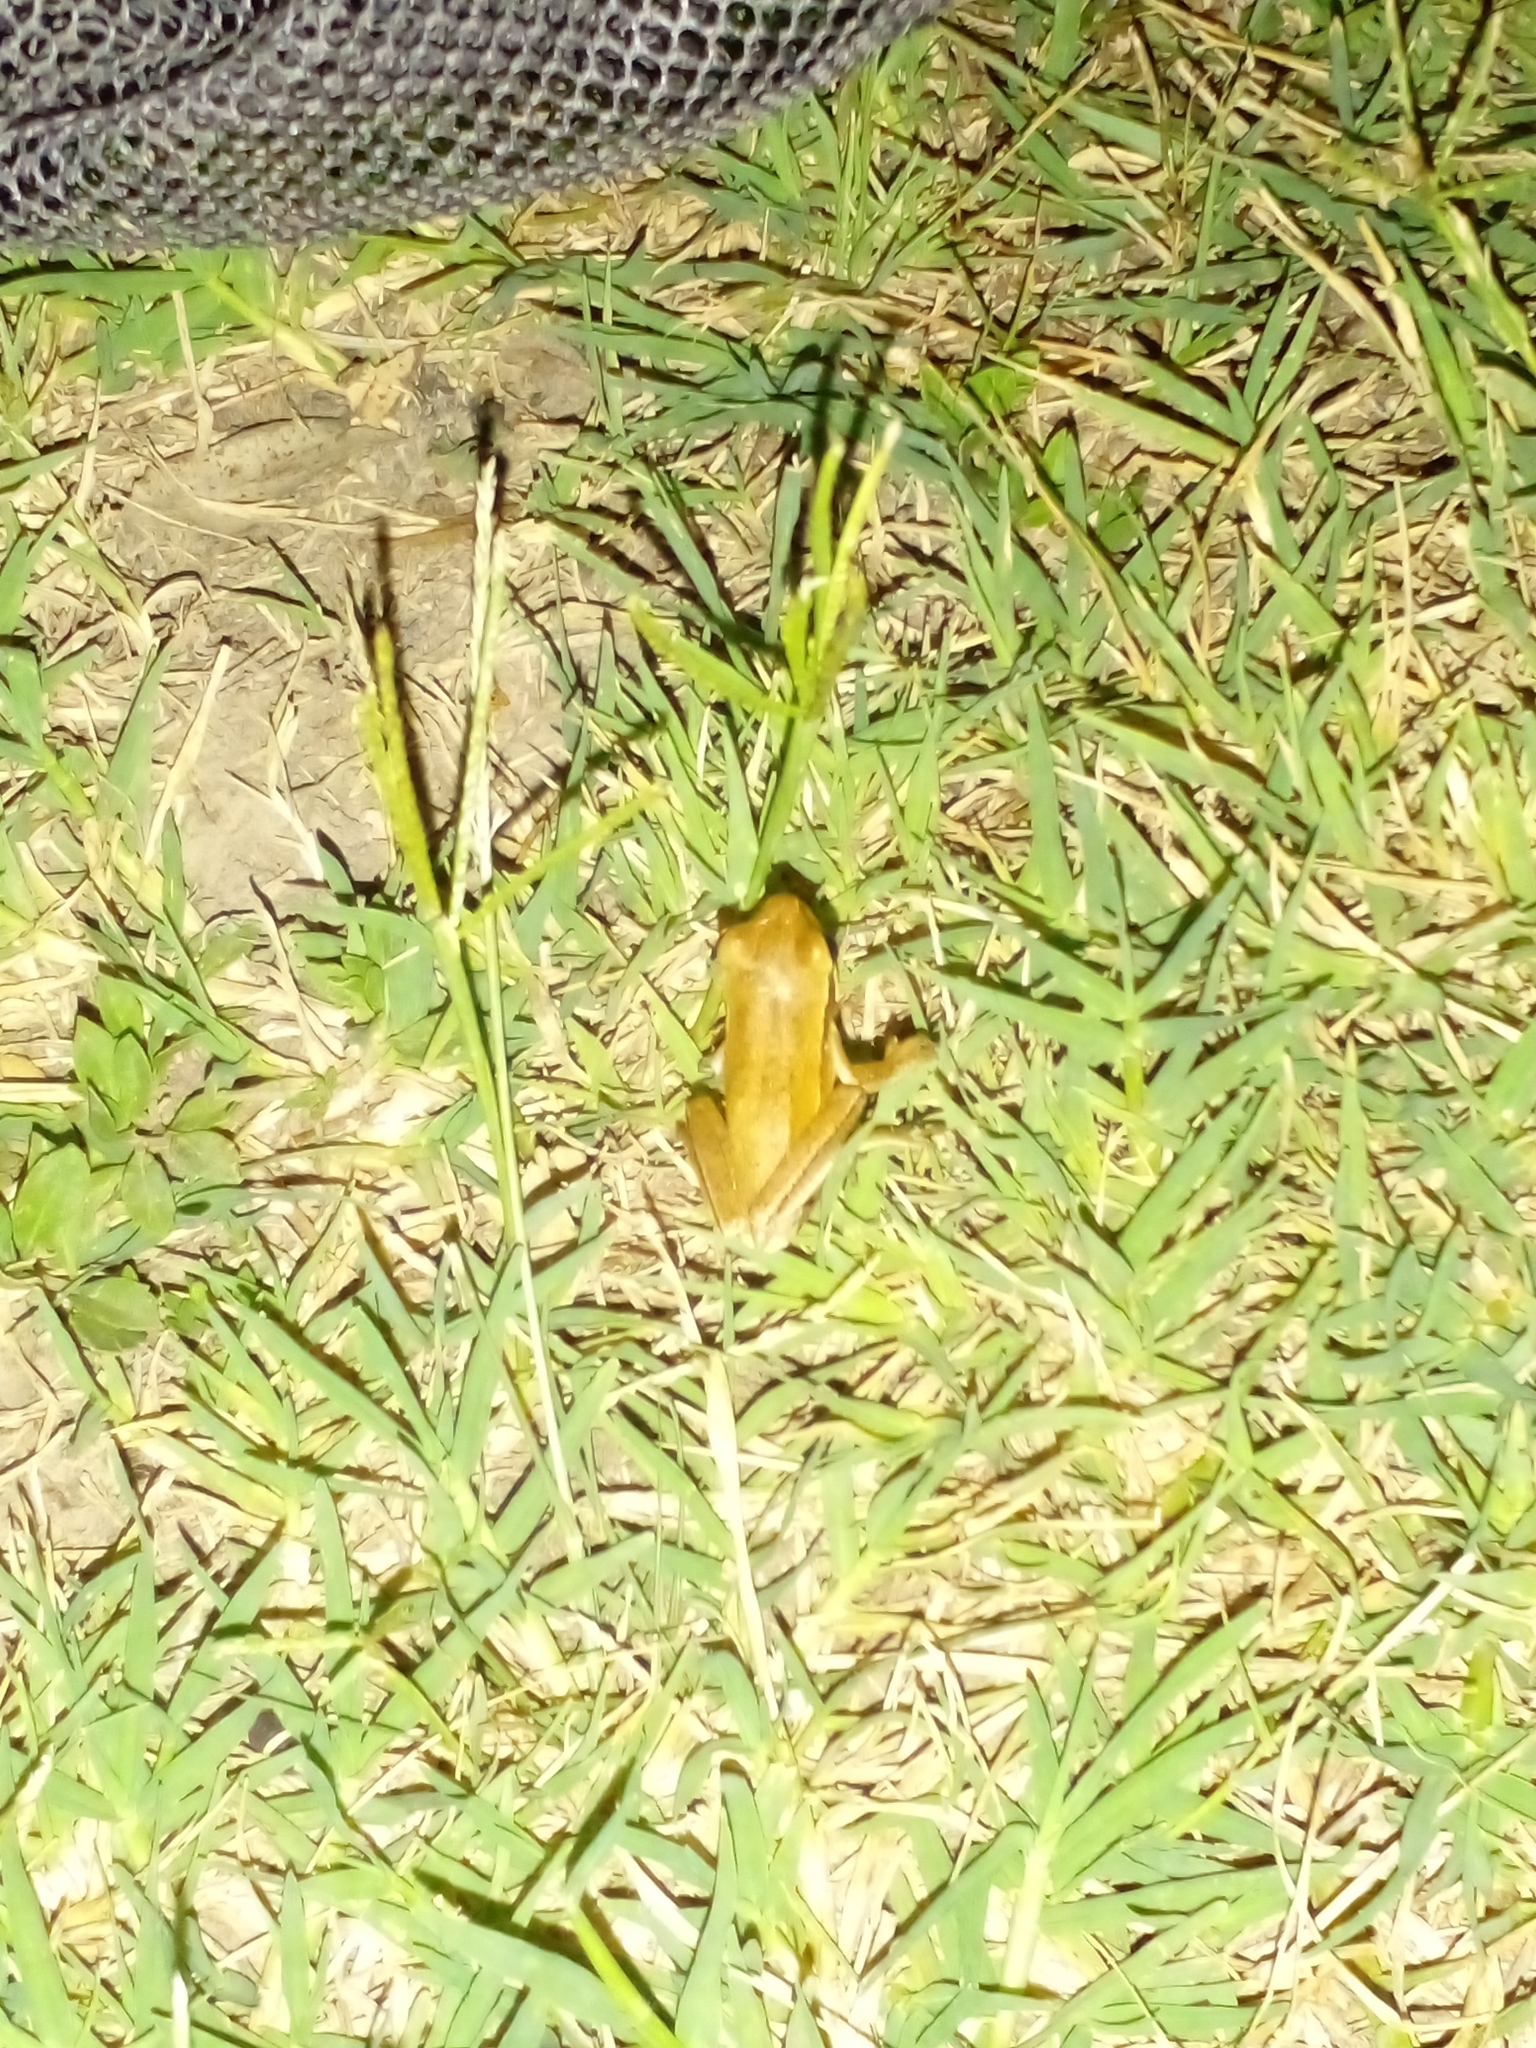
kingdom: Animalia
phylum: Chordata
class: Amphibia
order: Anura
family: Hylidae
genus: Boana
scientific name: Boana pulchella
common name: Montevideo treefrog
